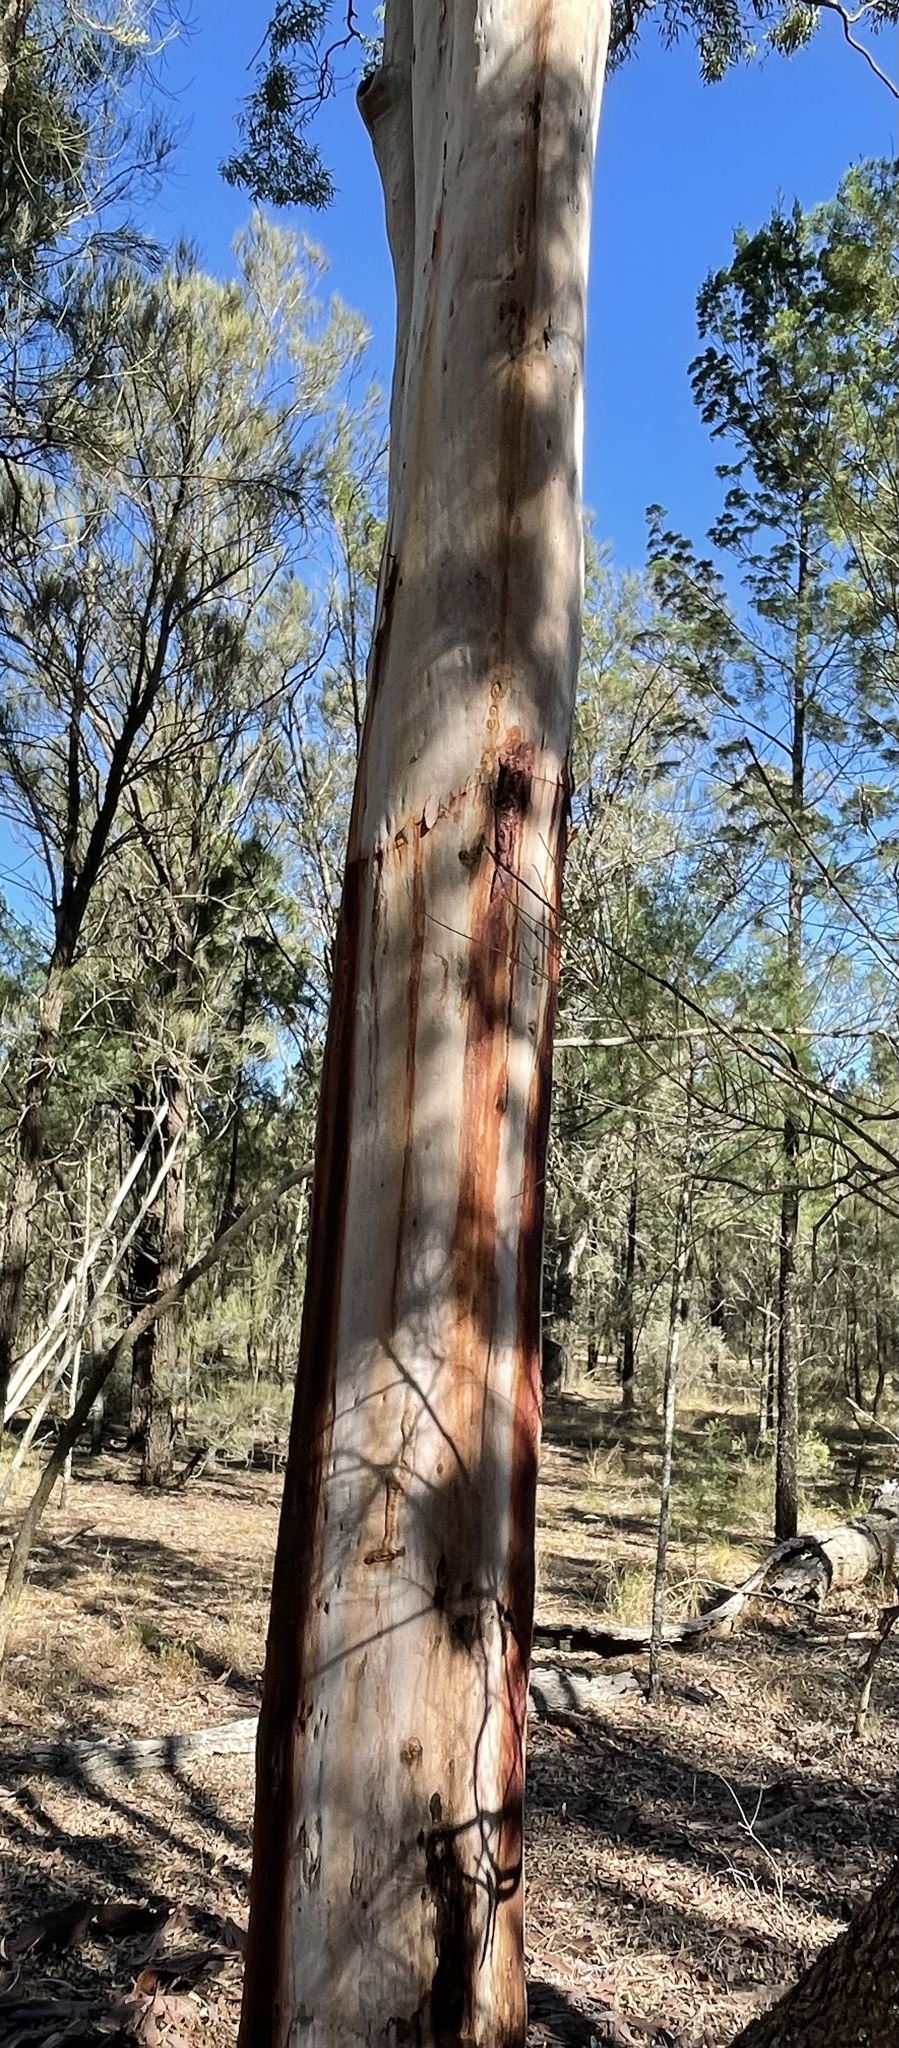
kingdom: Plantae
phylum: Tracheophyta
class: Magnoliopsida
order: Myrtales
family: Myrtaceae
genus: Angophora
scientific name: Angophora leiocarpa
